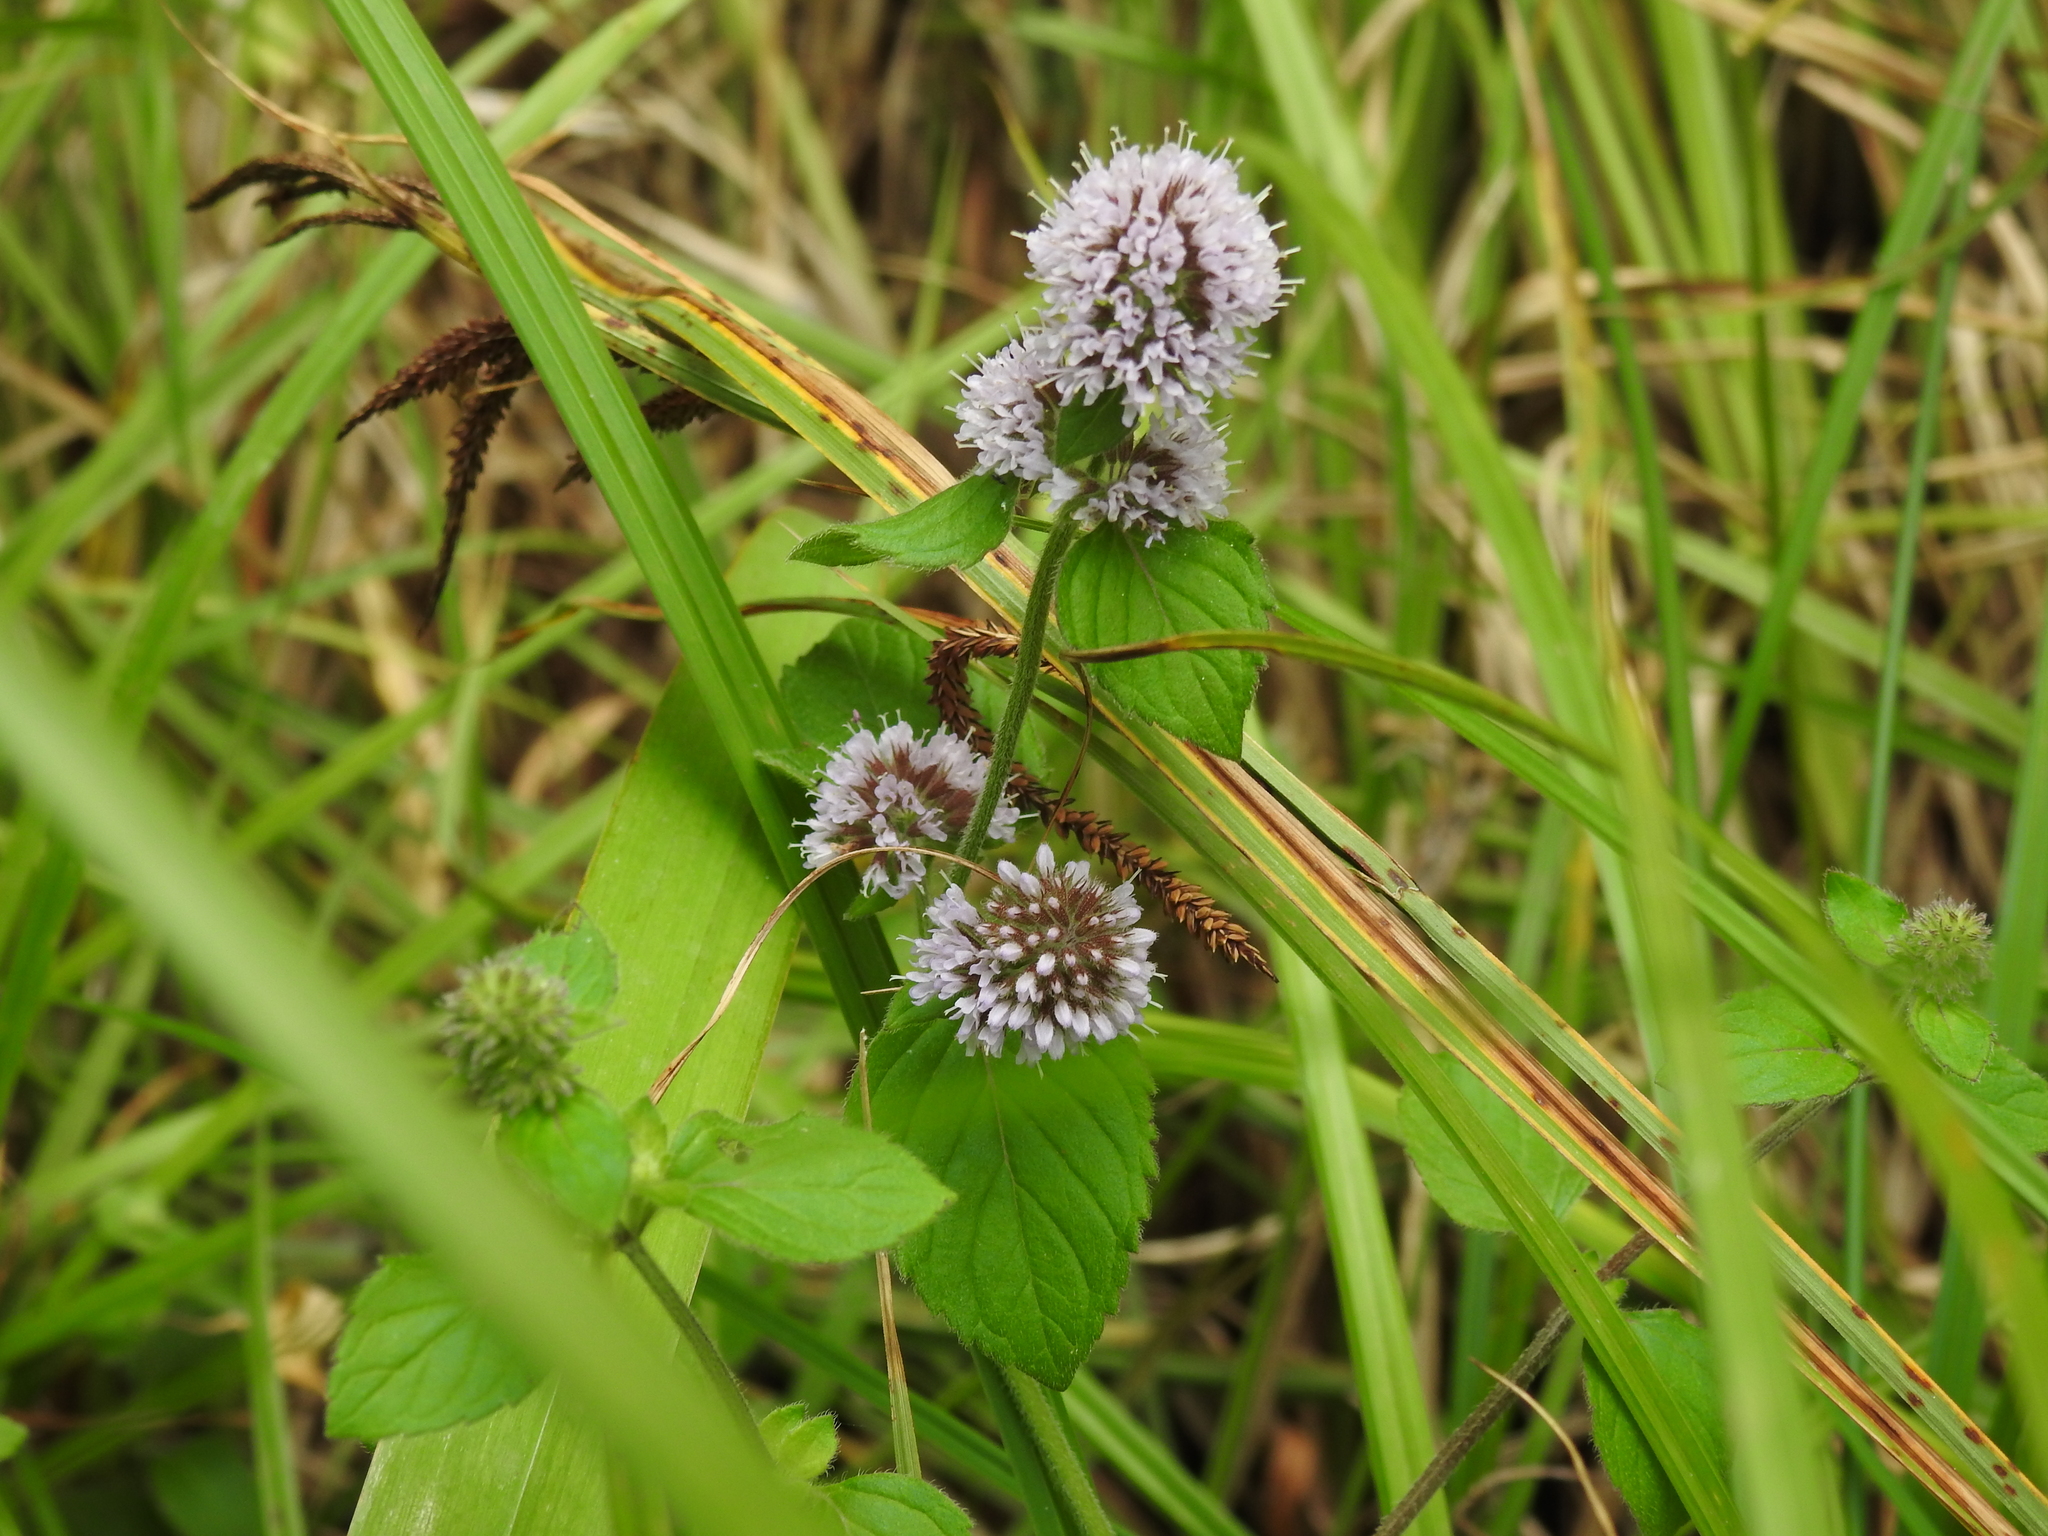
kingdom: Plantae
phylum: Tracheophyta
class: Magnoliopsida
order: Lamiales
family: Lamiaceae
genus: Mentha
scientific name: Mentha aquatica
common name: Water mint
